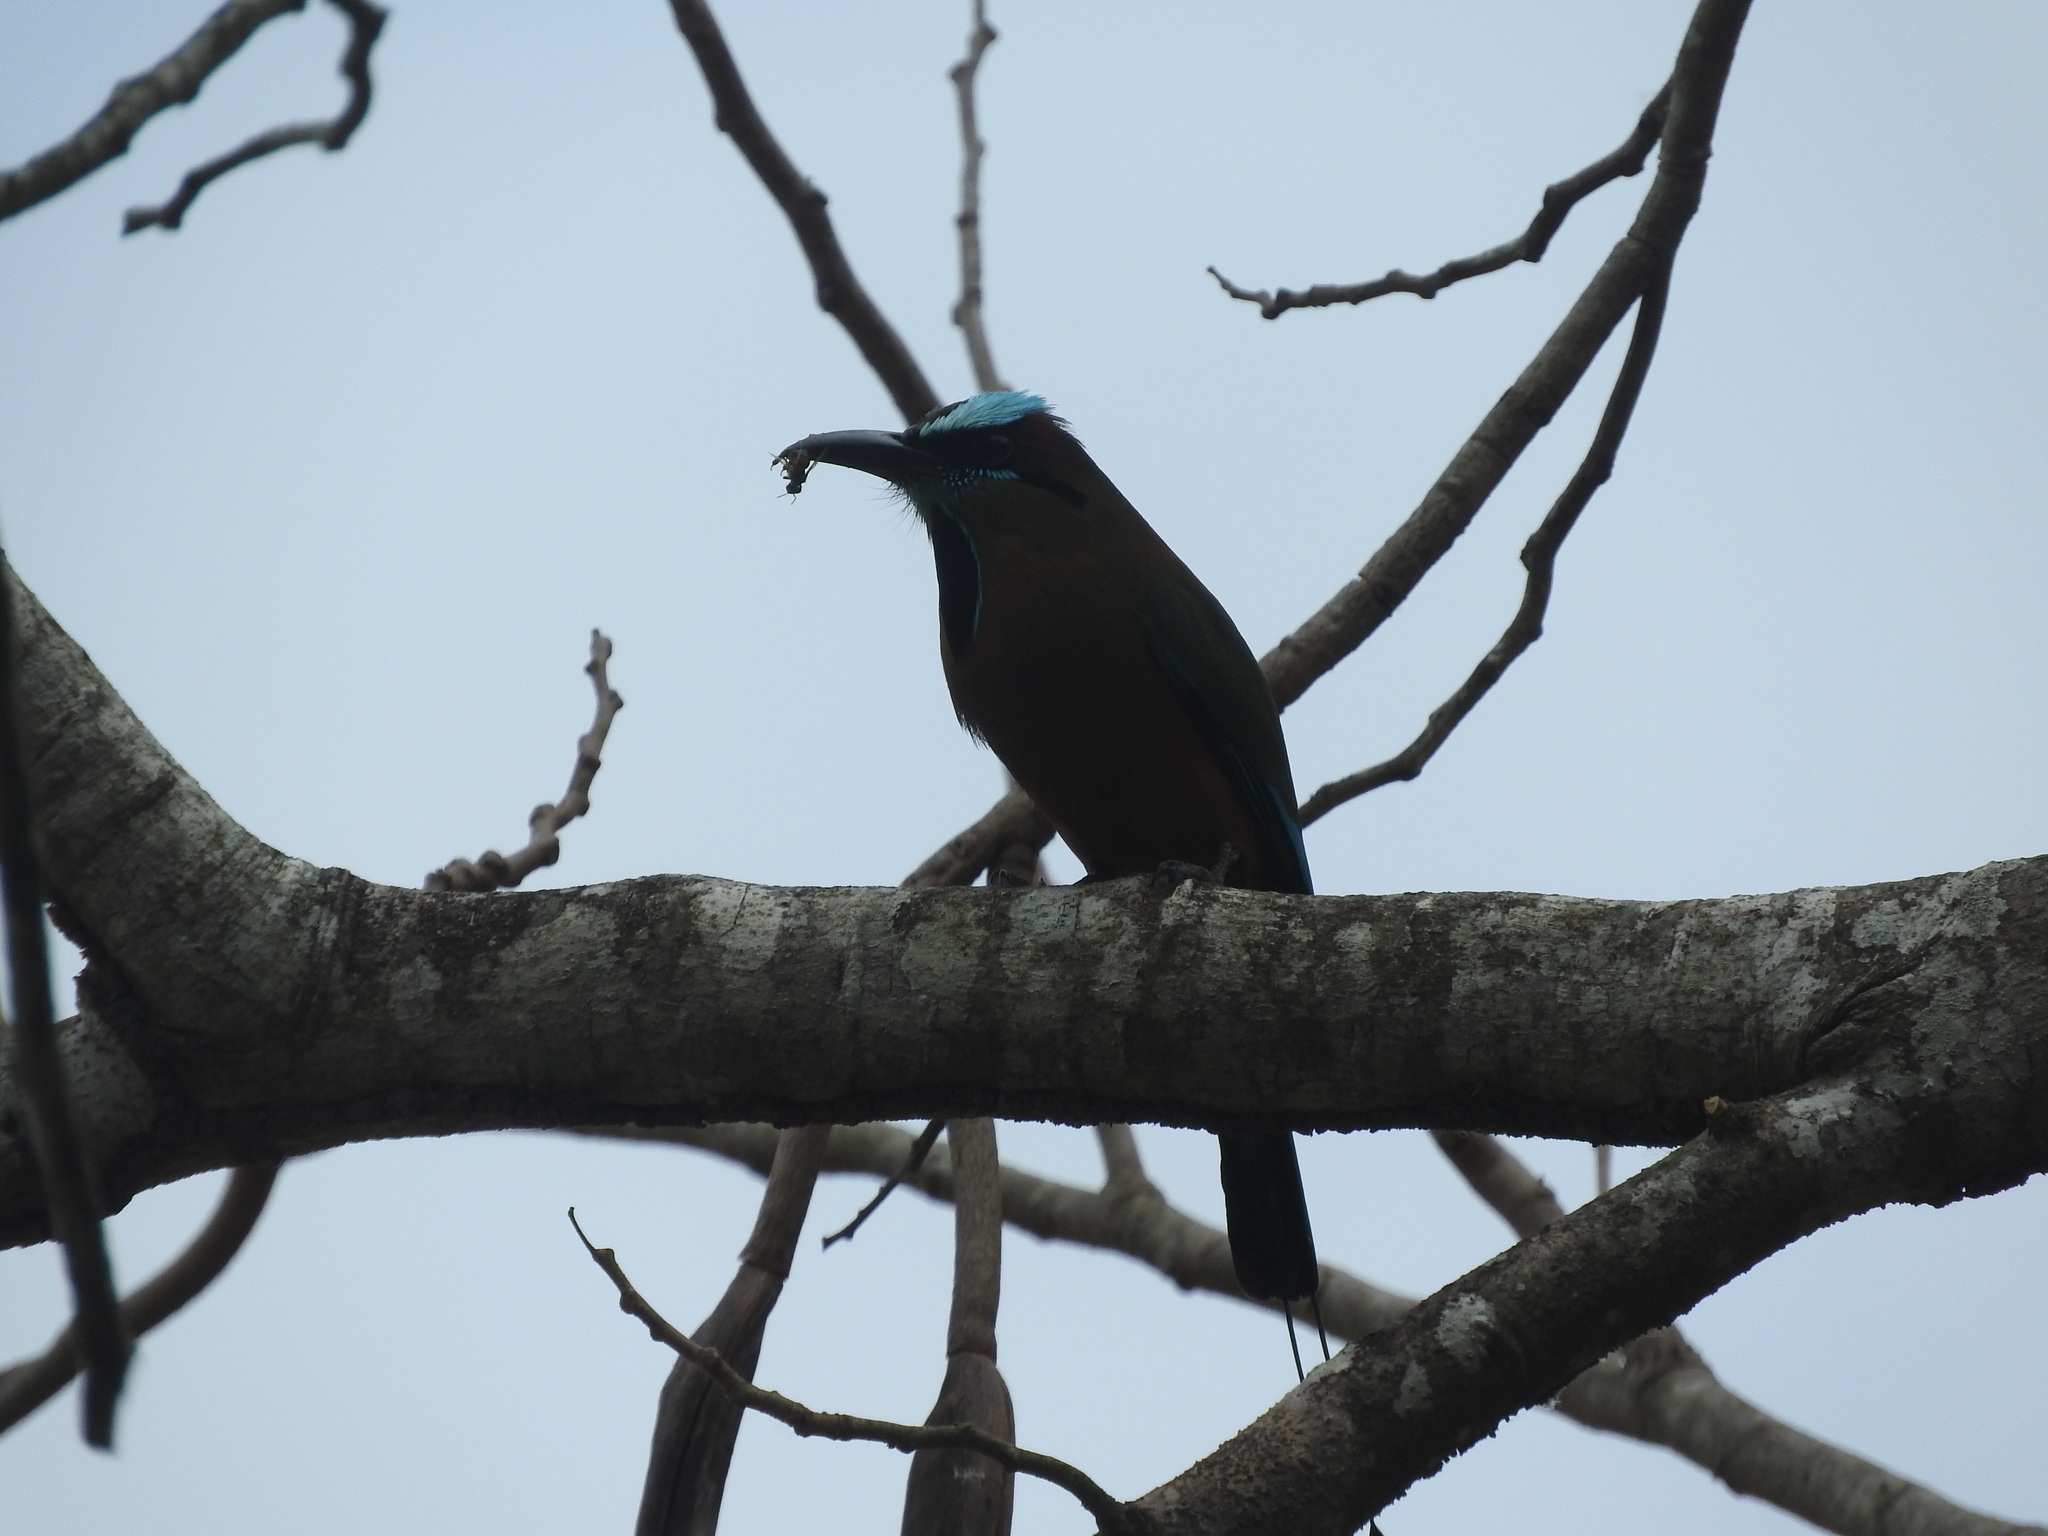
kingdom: Animalia
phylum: Chordata
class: Aves
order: Coraciiformes
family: Momotidae
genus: Eumomota
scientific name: Eumomota superciliosa
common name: Turquoise-browed motmot
